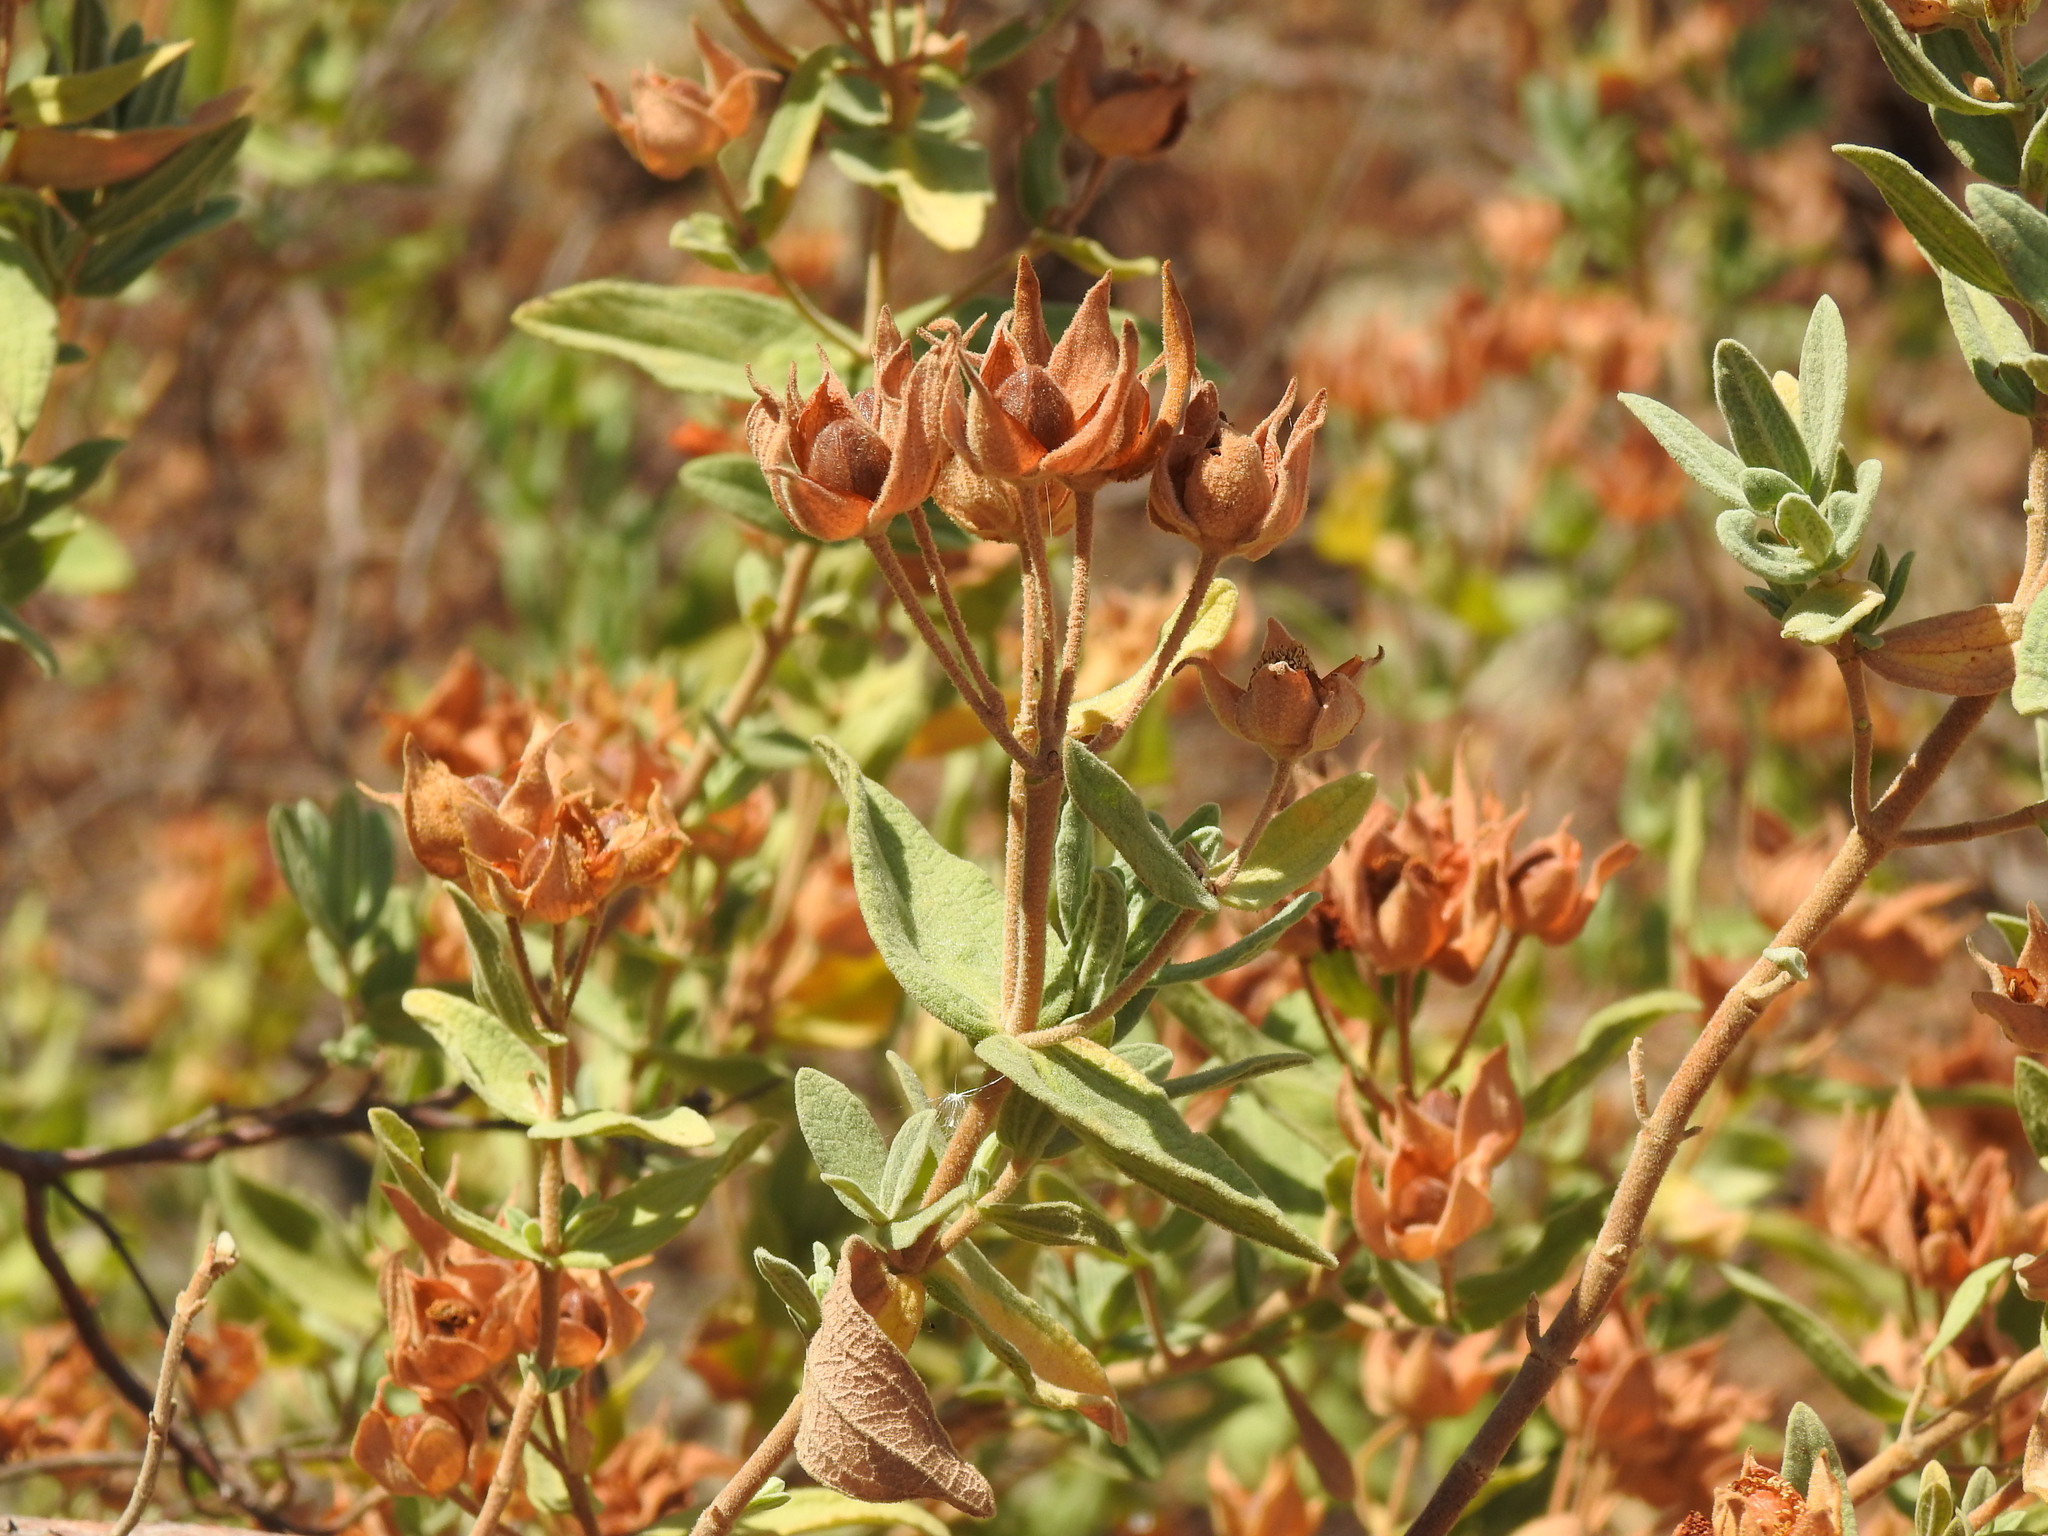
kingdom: Plantae
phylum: Tracheophyta
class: Magnoliopsida
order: Malvales
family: Cistaceae
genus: Cistus
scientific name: Cistus albidus
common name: White-leaf rock-rose
